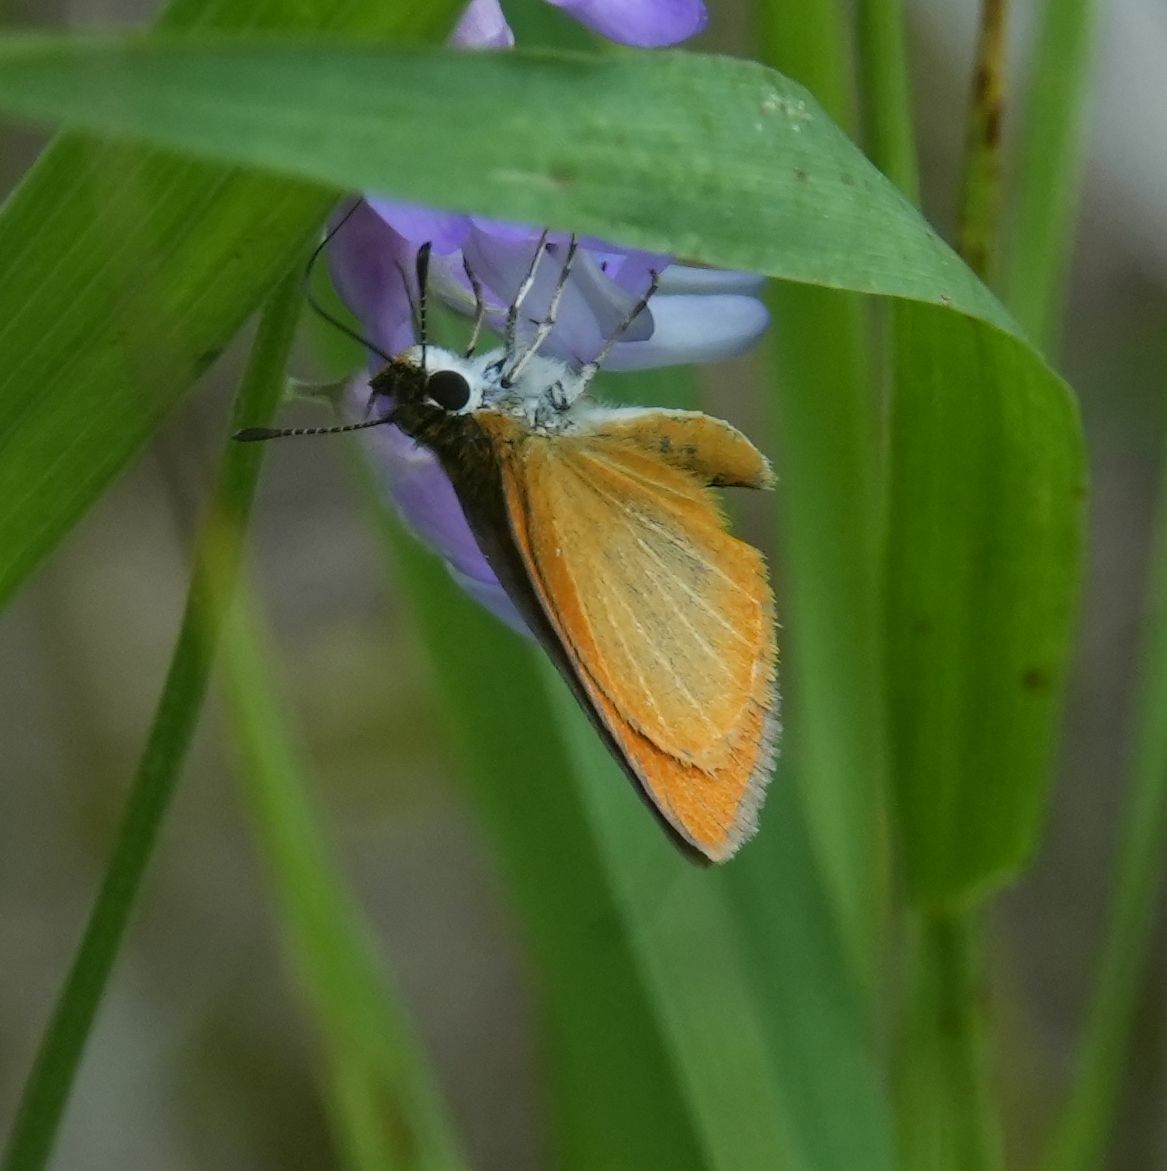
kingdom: Animalia
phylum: Arthropoda
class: Insecta
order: Lepidoptera
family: Hesperiidae
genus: Ancyloxypha
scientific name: Ancyloxypha numitor
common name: Least skipper
